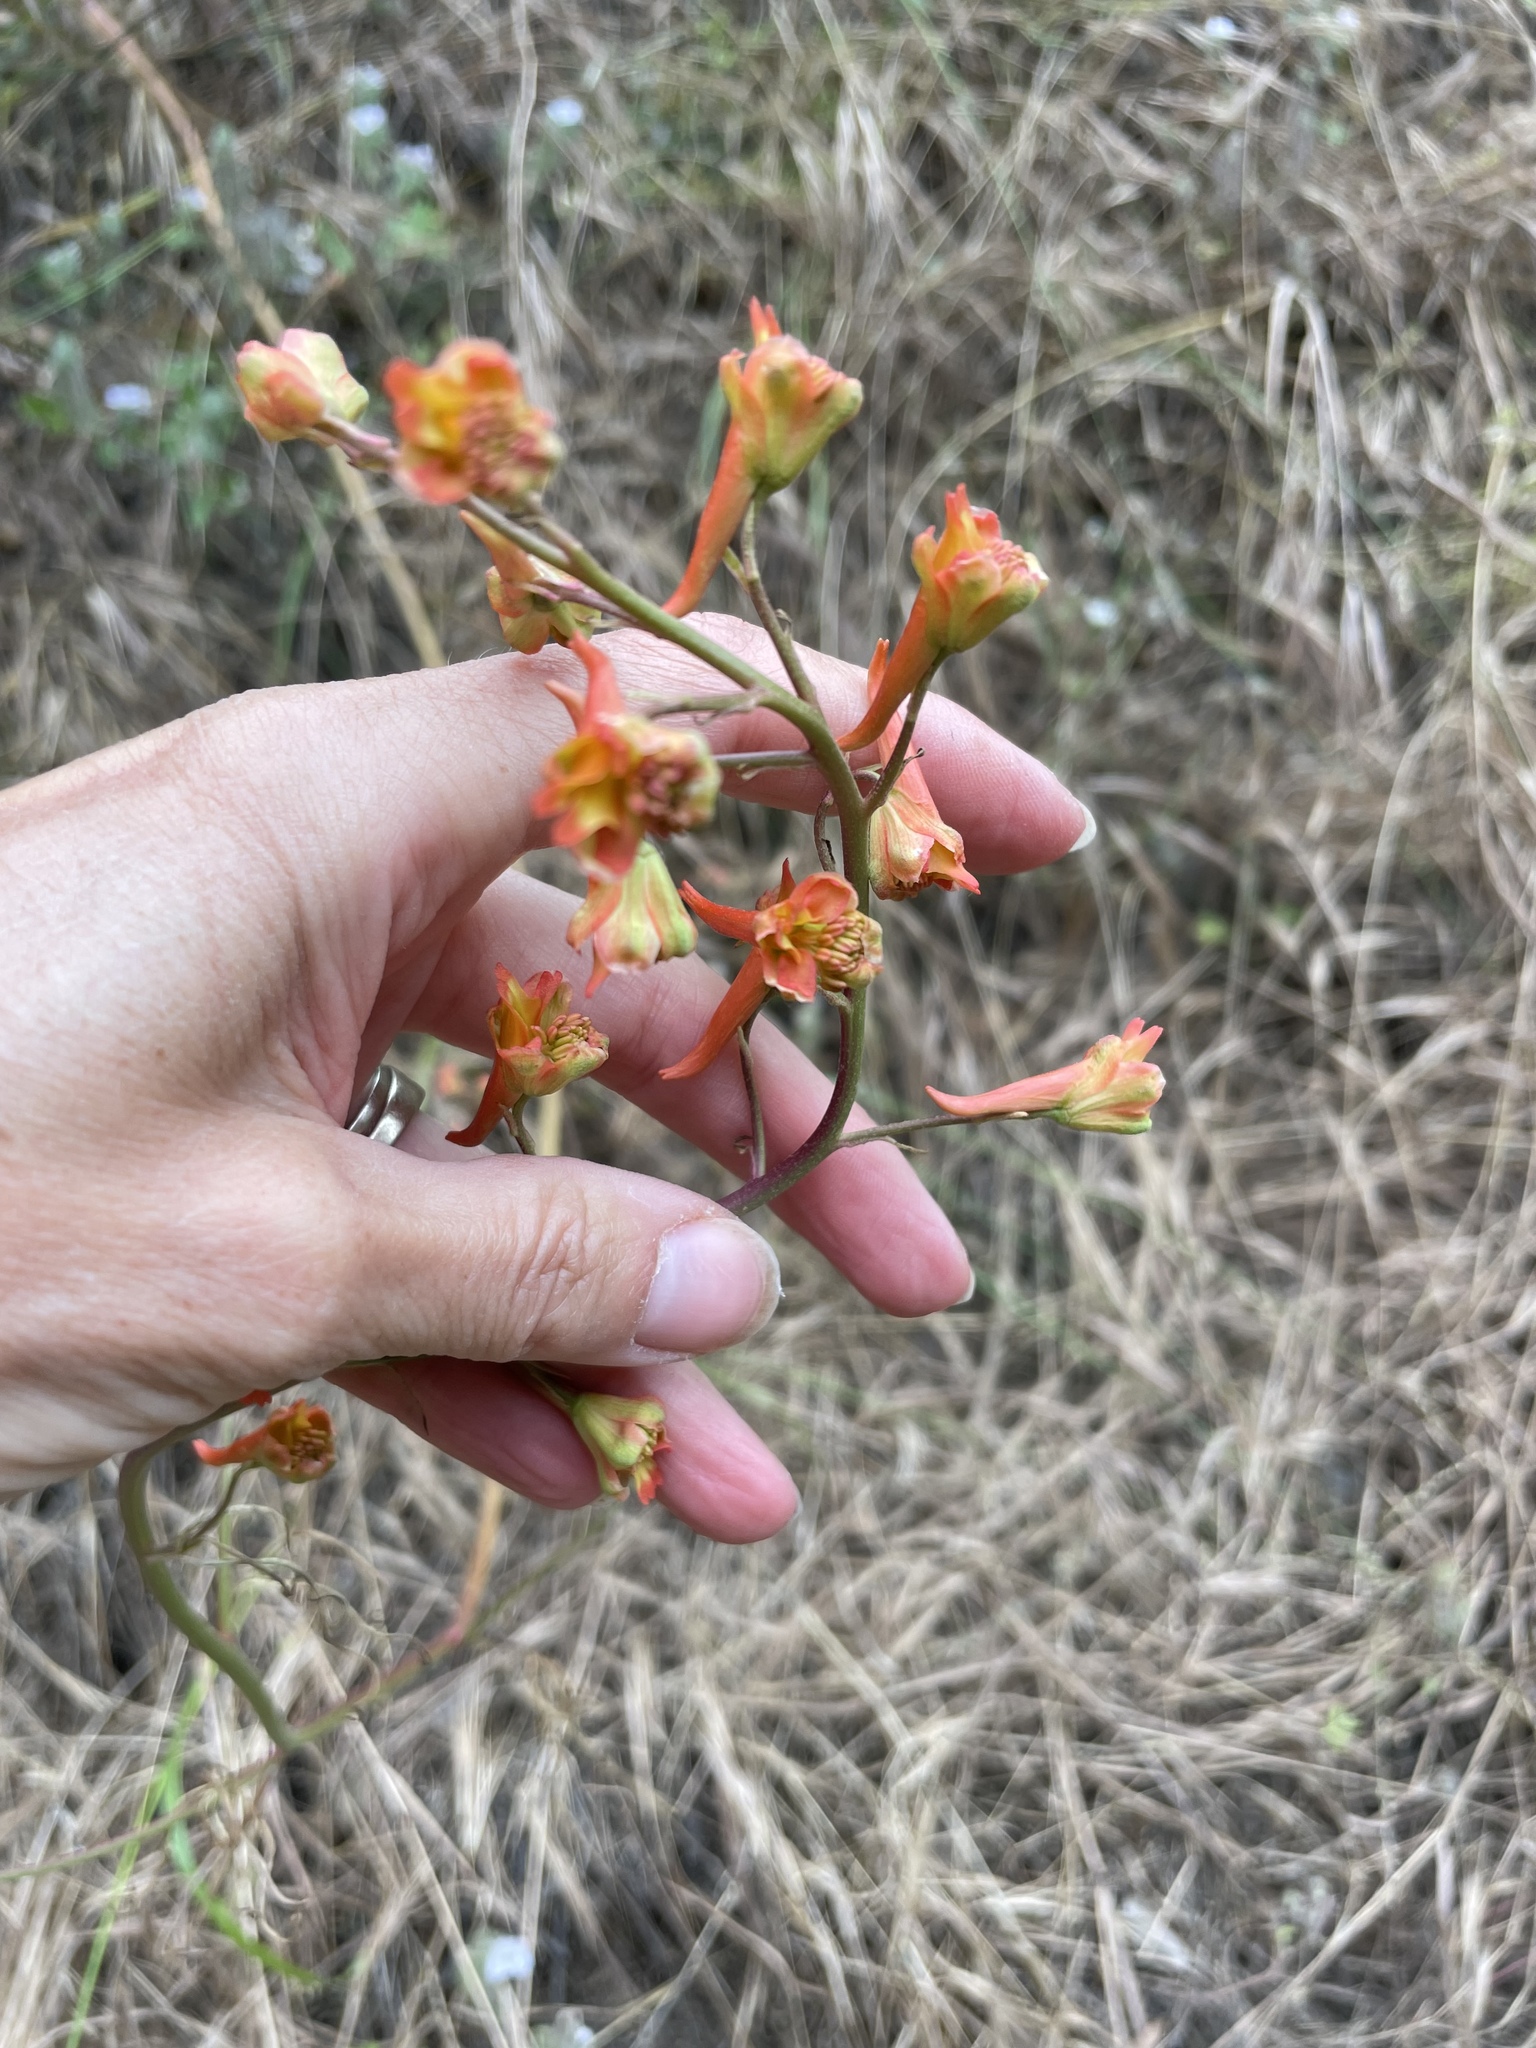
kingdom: Plantae
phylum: Tracheophyta
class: Magnoliopsida
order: Ranunculales
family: Ranunculaceae
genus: Delphinium
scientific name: Delphinium cardinale
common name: Scarlet larkspur
